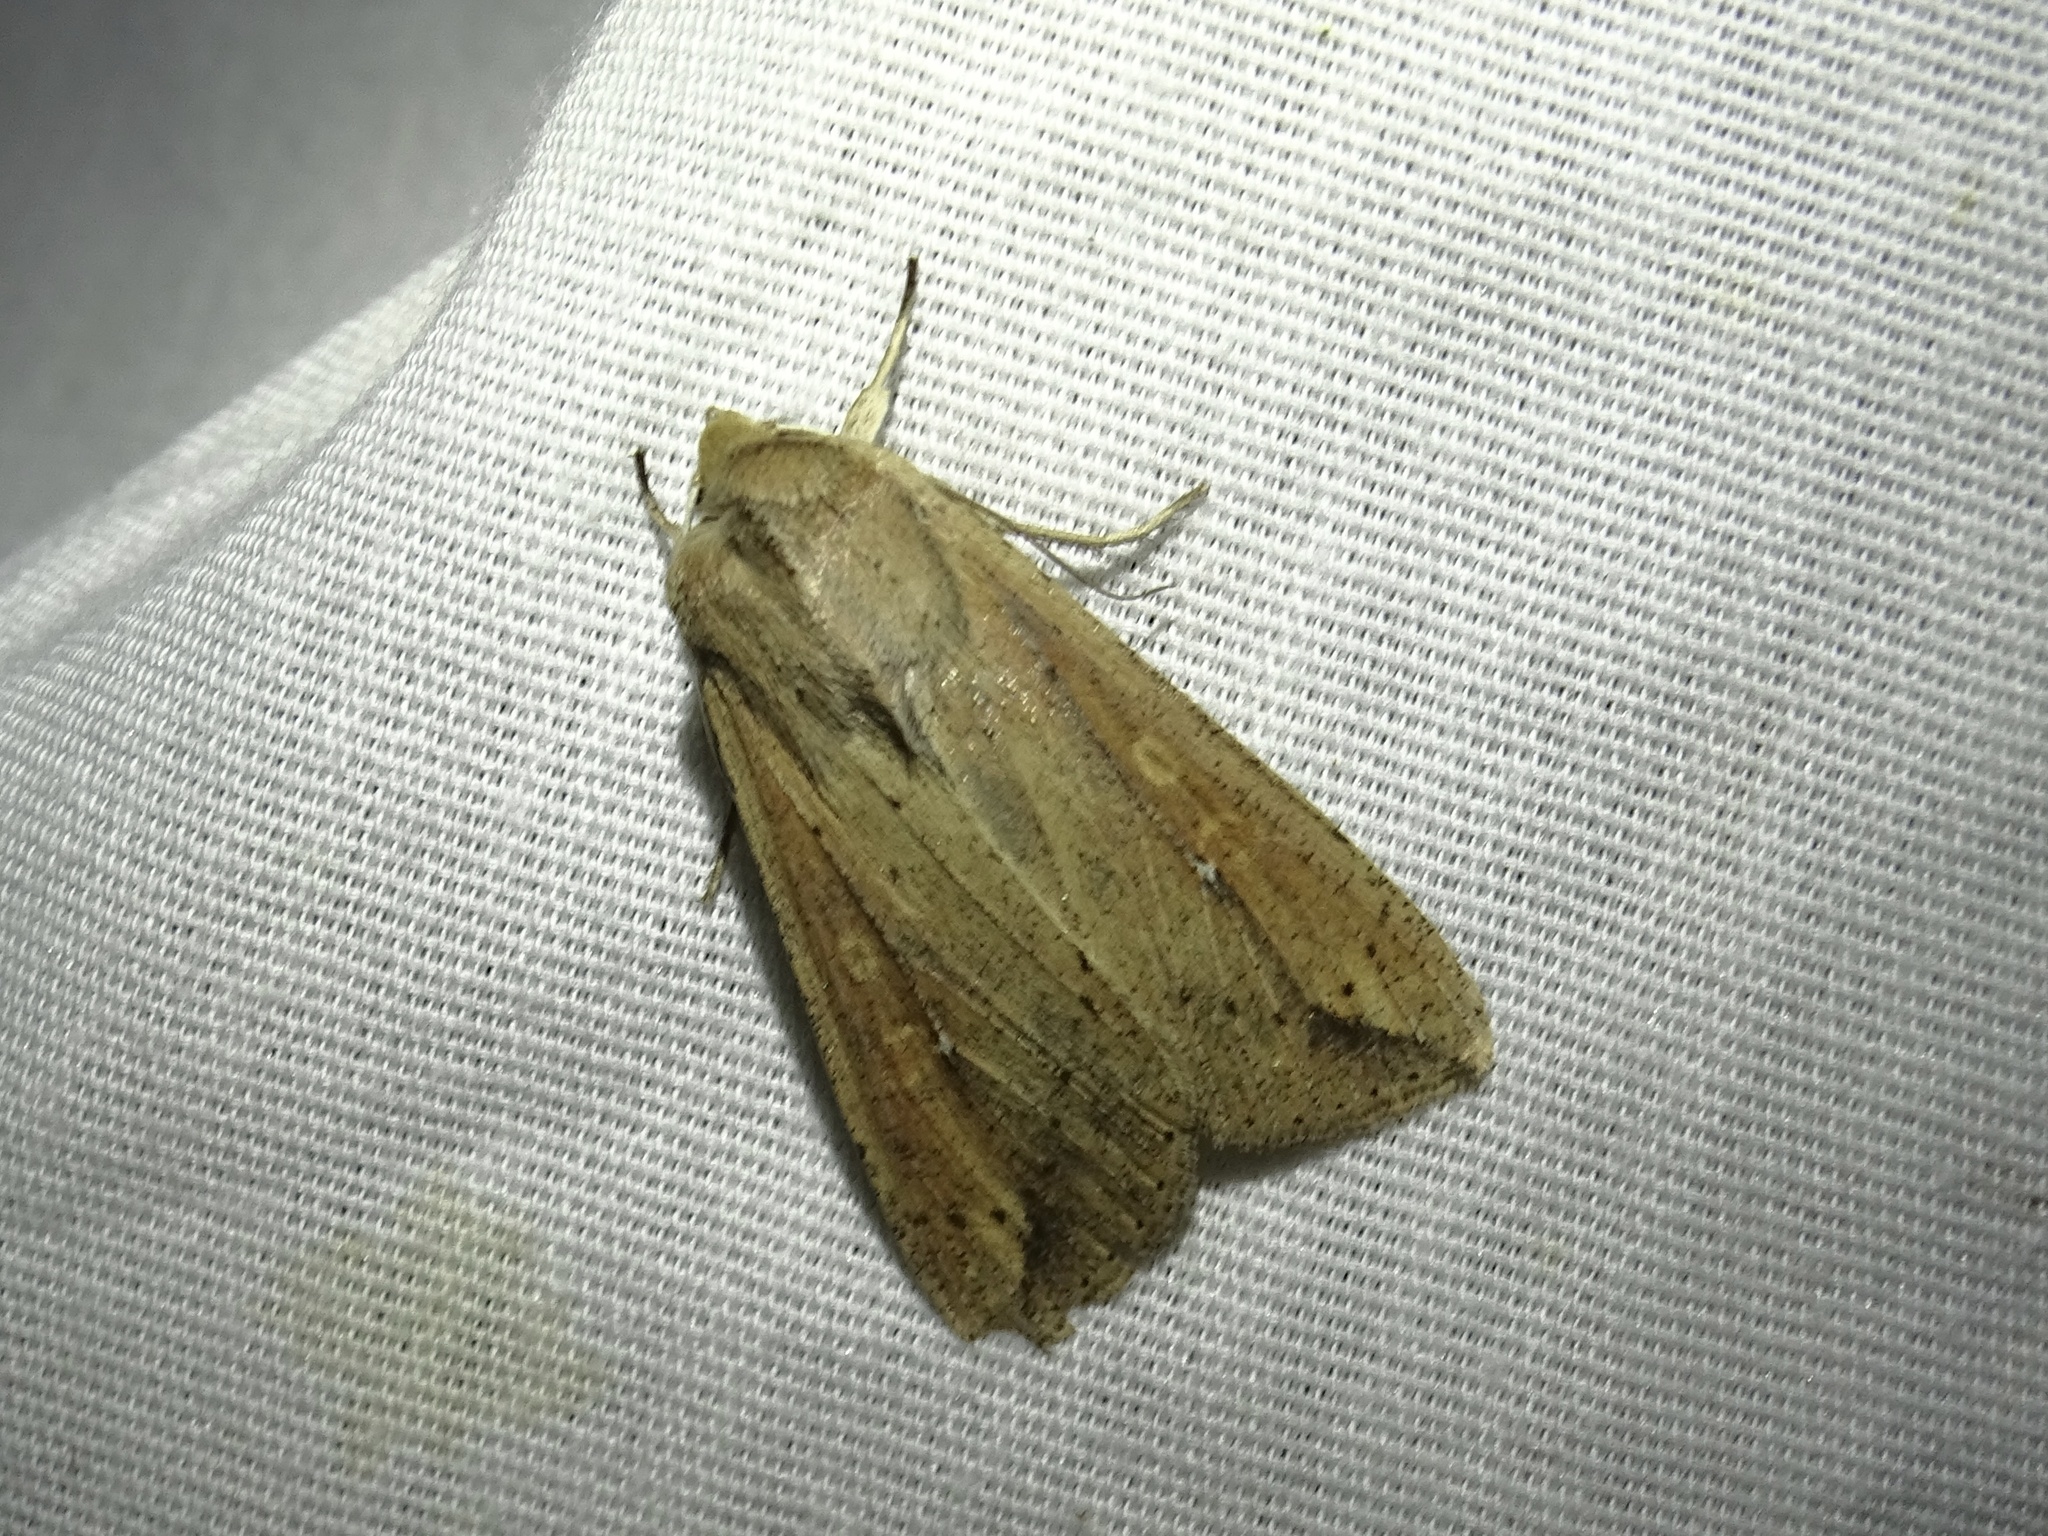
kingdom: Animalia
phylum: Arthropoda
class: Insecta
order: Lepidoptera
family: Noctuidae
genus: Mythimna
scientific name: Mythimna unipuncta
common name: White-speck
